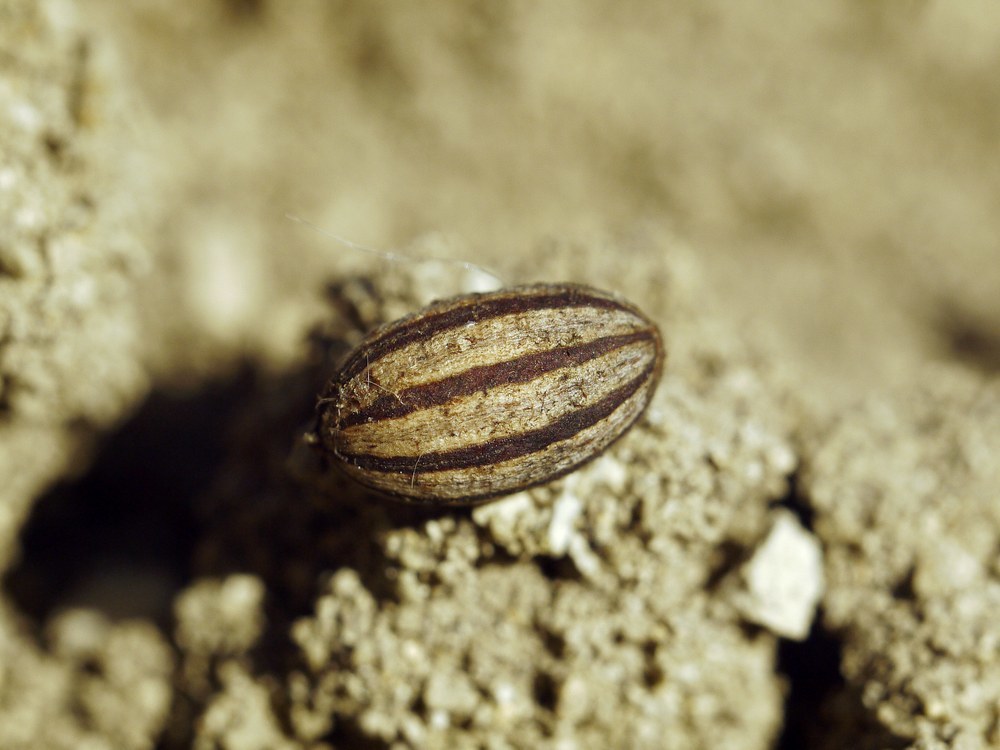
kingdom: Plantae
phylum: Tracheophyta
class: Magnoliopsida
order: Rosales
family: Elaeagnaceae
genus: Elaeagnus
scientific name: Elaeagnus angustifolia
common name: Russian olive
